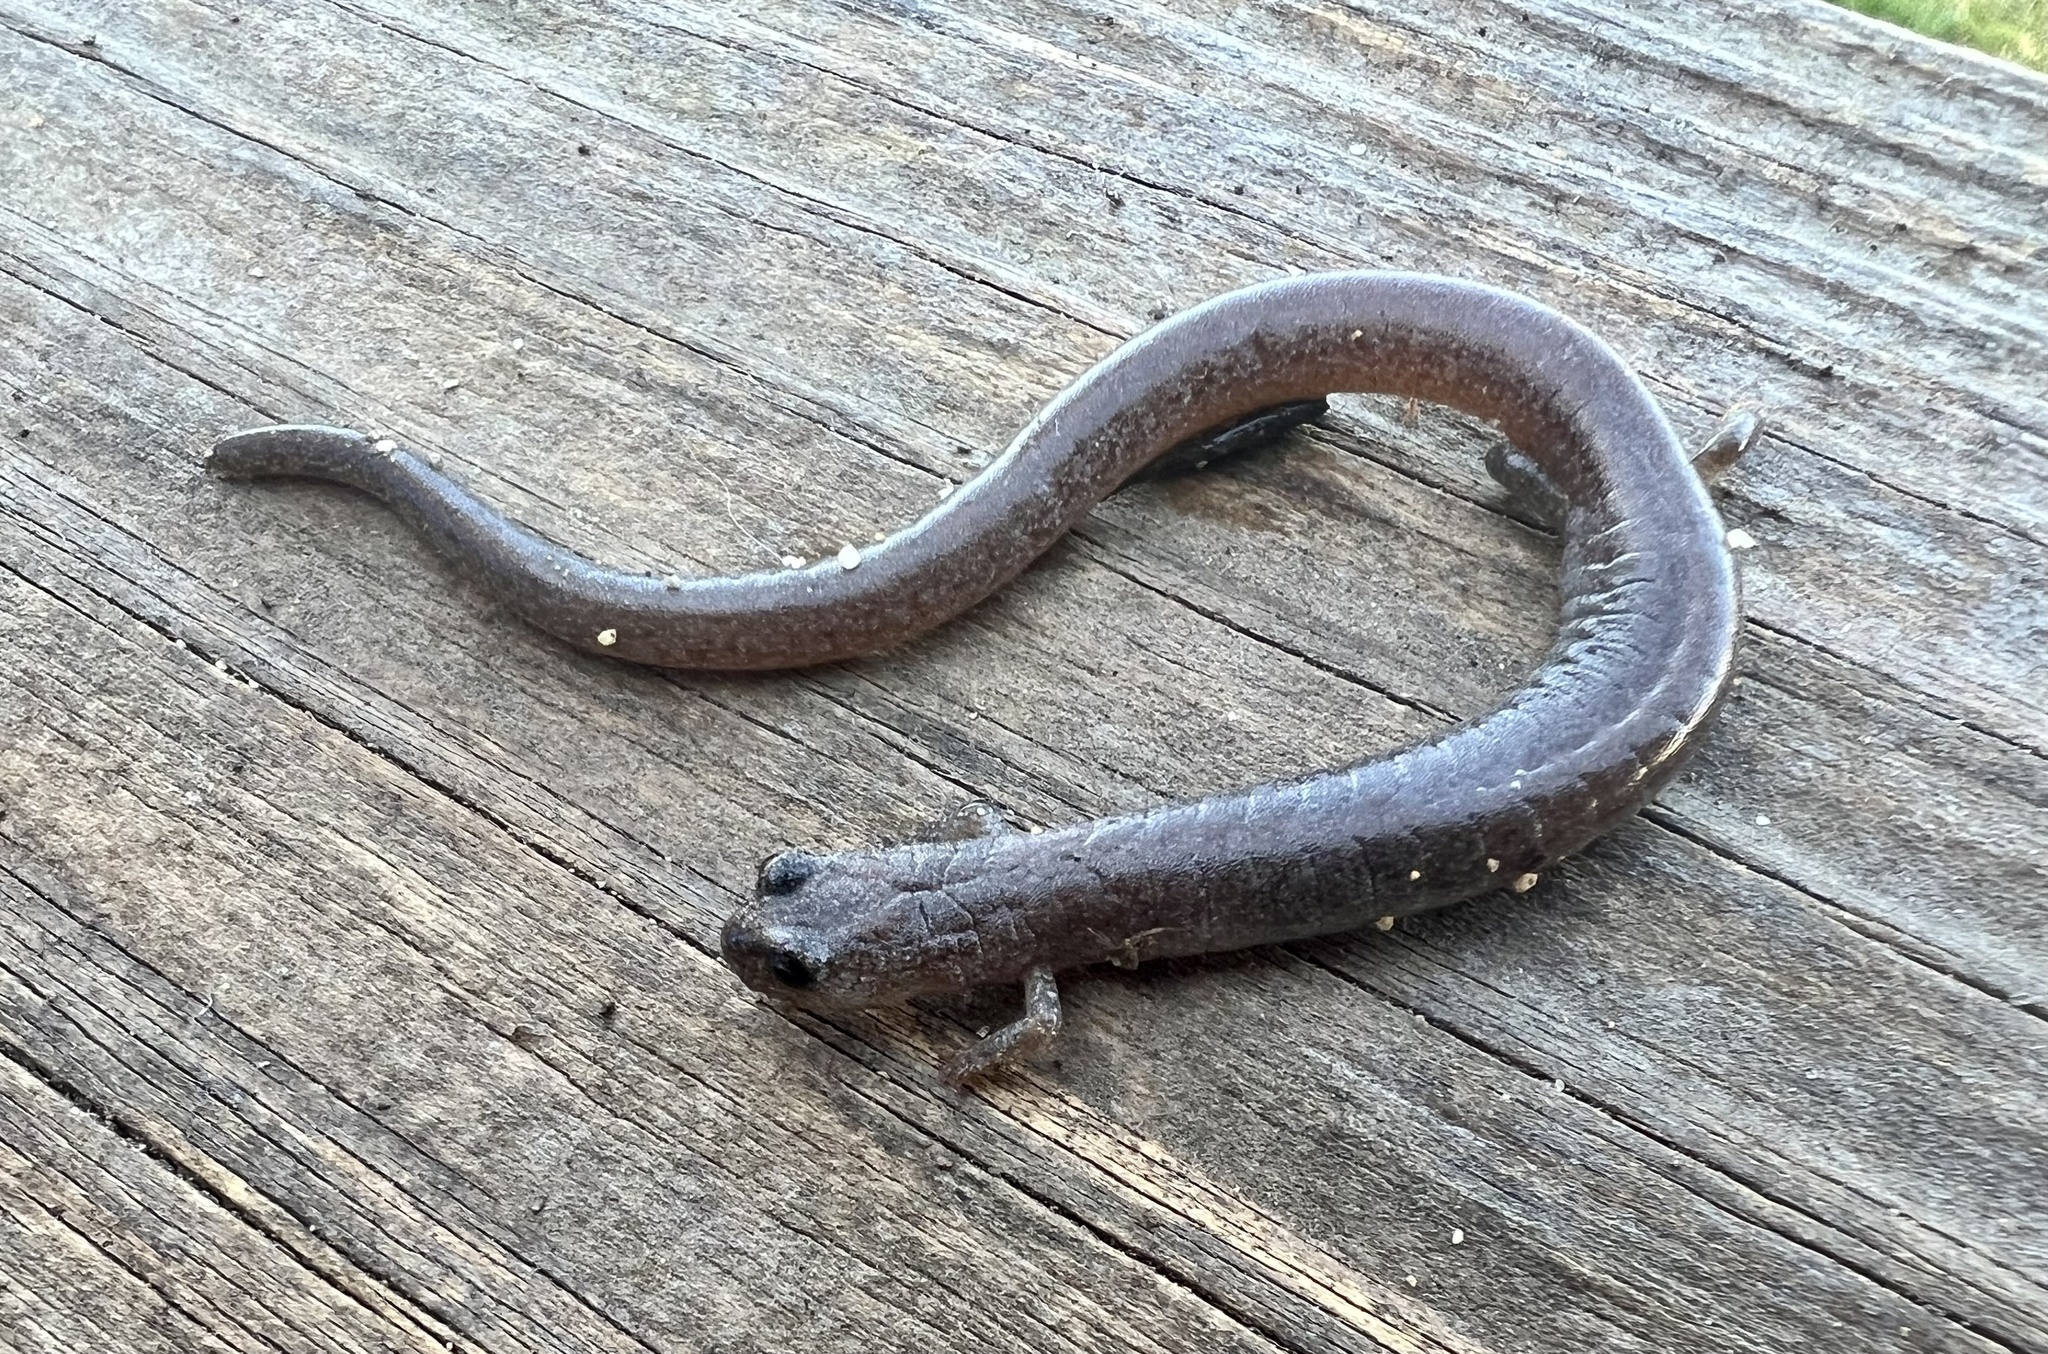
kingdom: Animalia
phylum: Chordata
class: Amphibia
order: Caudata
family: Plethodontidae
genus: Batrachoseps
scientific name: Batrachoseps major
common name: Garden slender salamander
